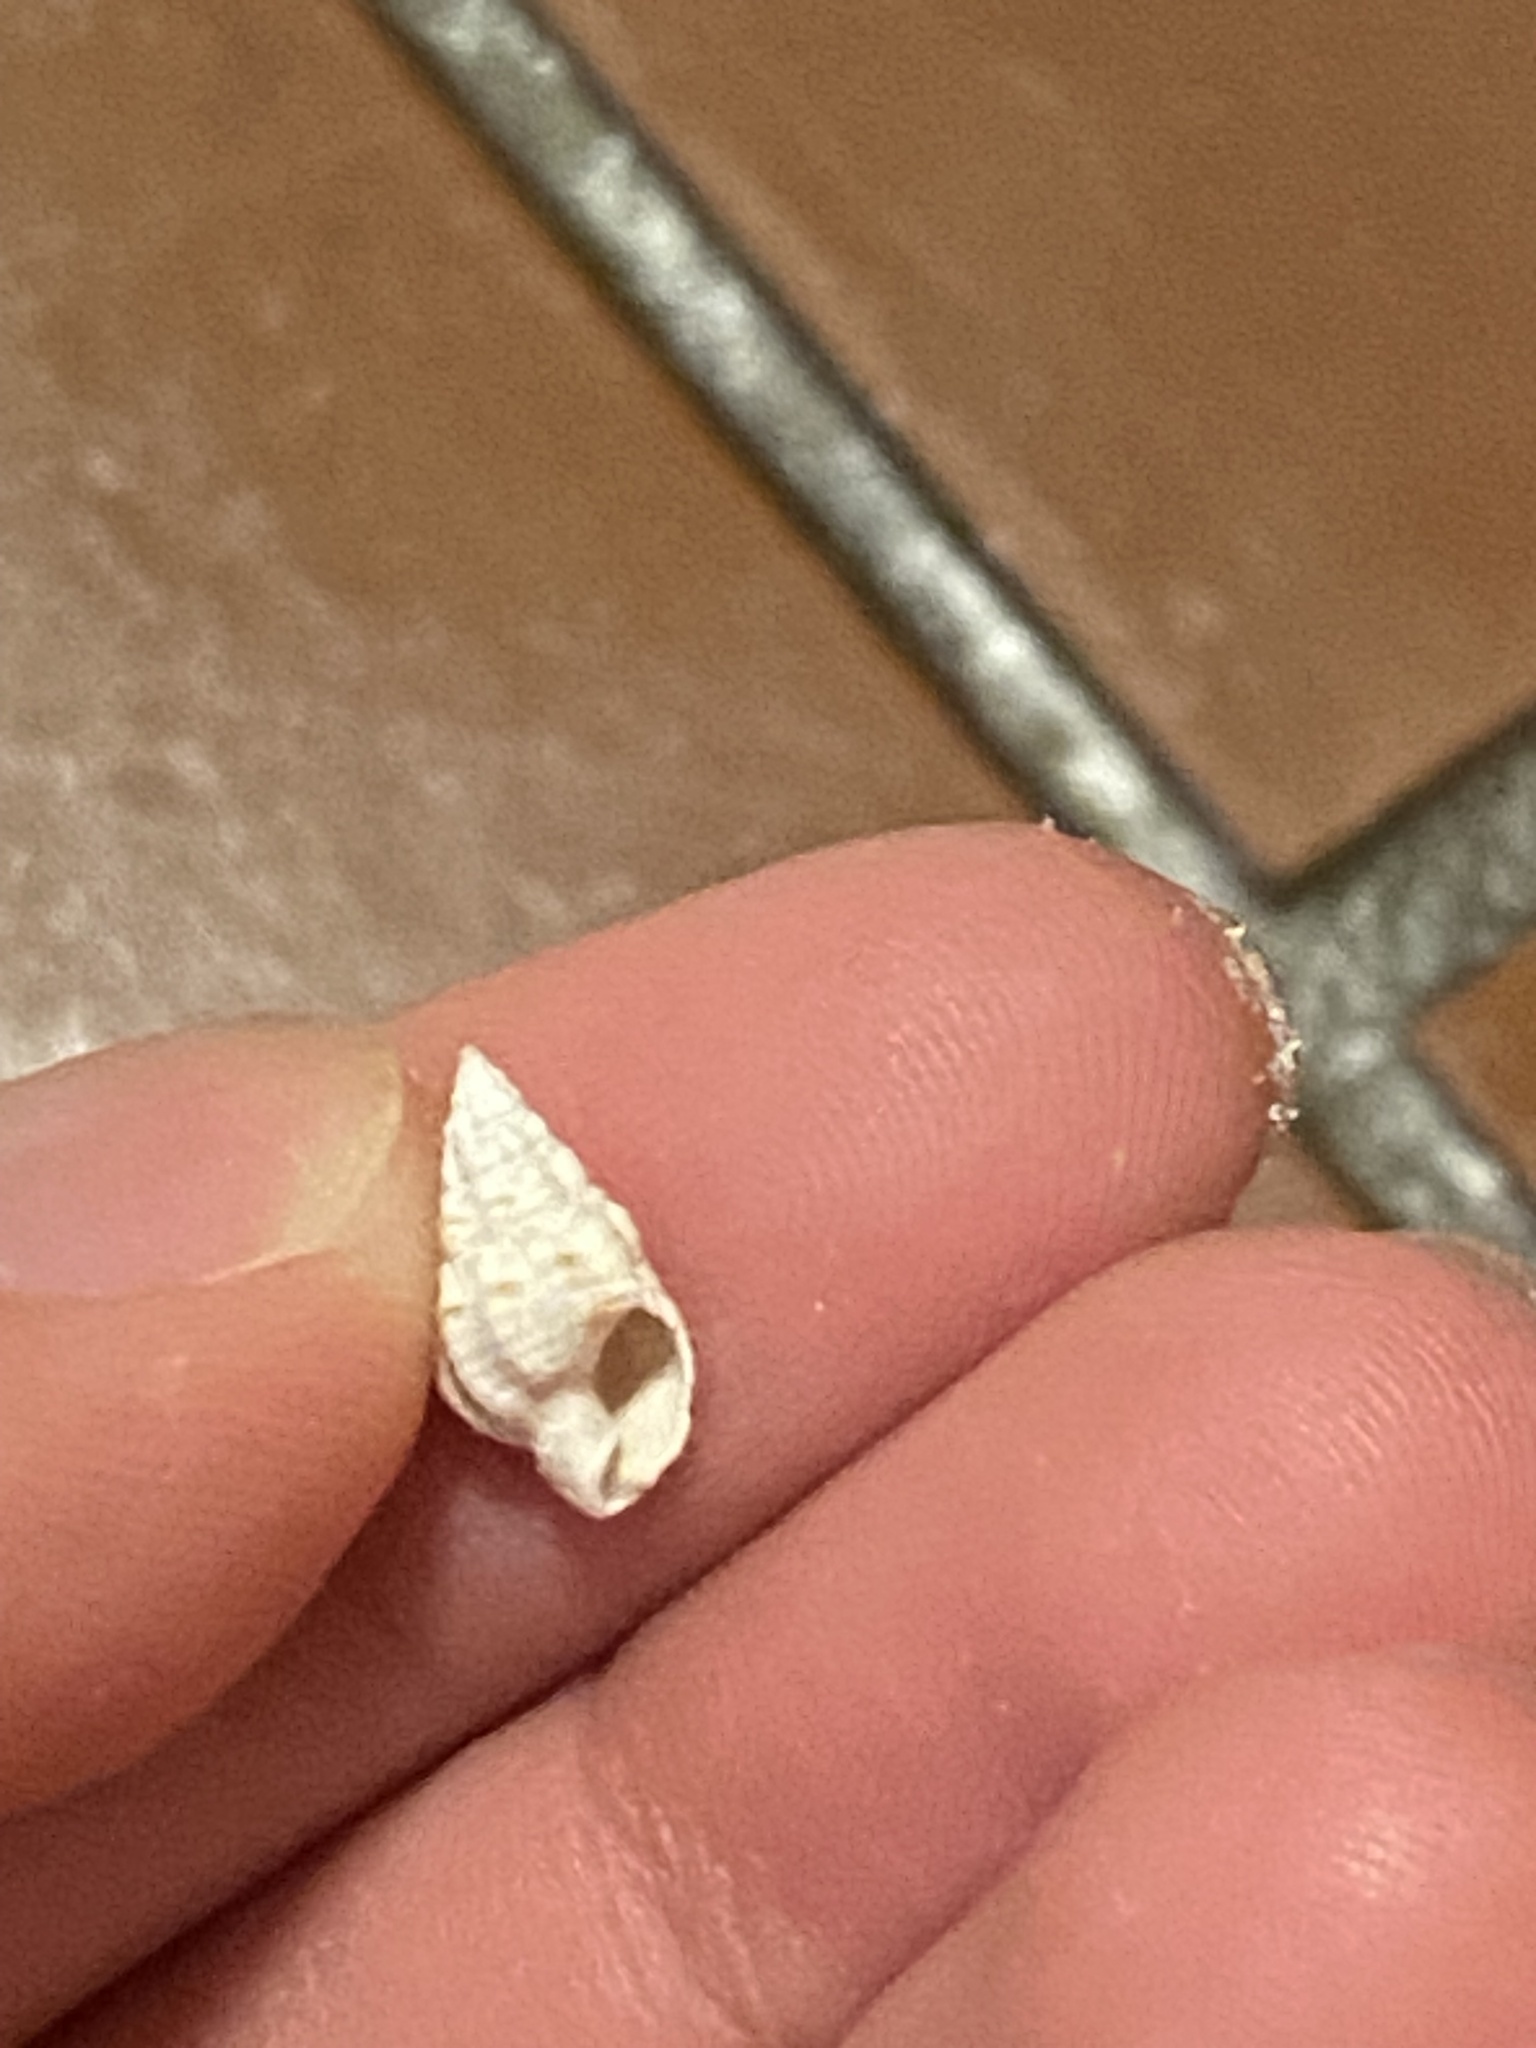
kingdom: Animalia
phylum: Mollusca
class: Gastropoda
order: Neogastropoda
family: Nassariidae
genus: Phrontis
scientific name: Phrontis vibex
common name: Bruised nassa
